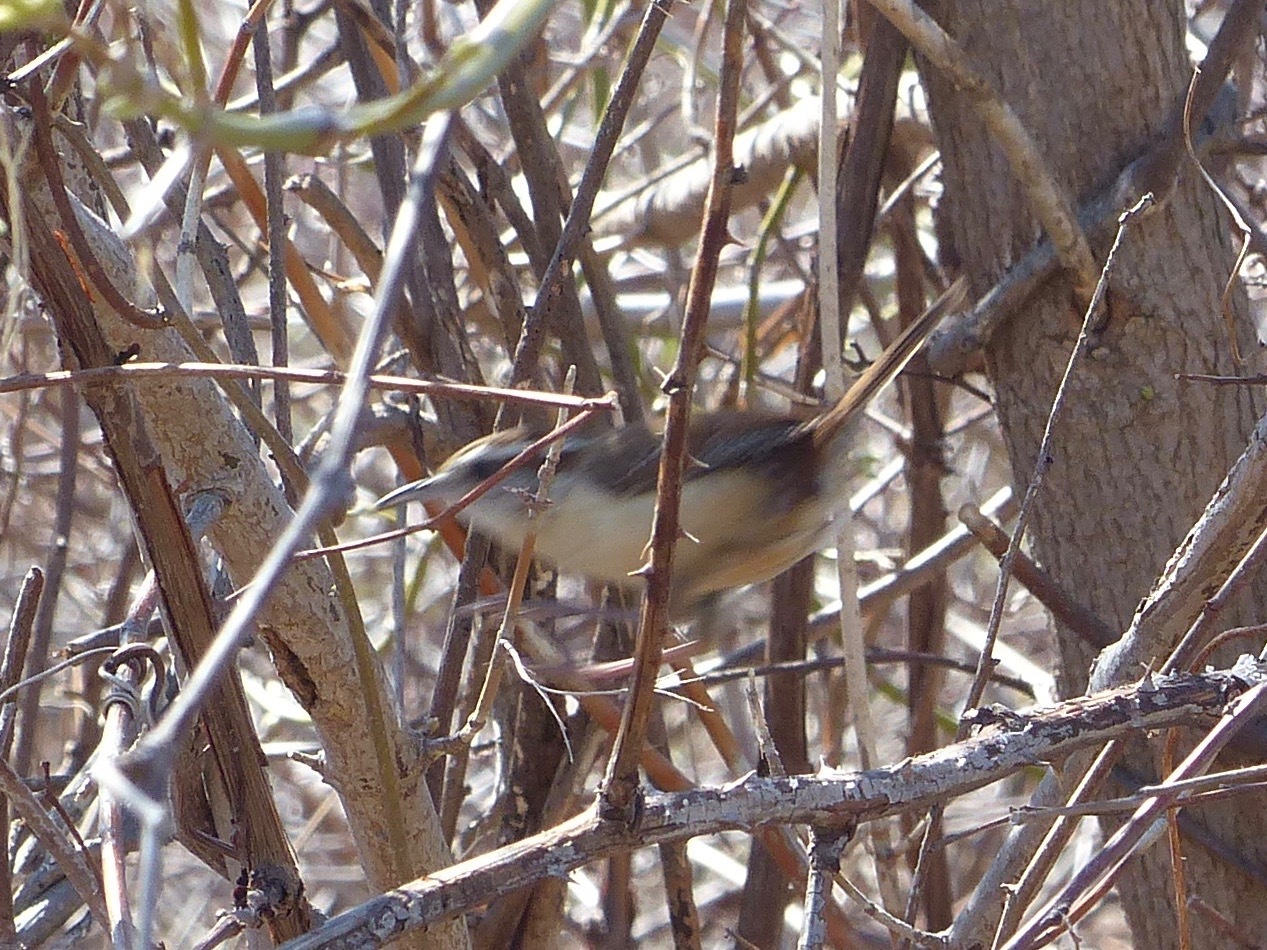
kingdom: Animalia
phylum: Chordata
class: Aves
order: Passeriformes
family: Troglodytidae
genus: Thryothorus
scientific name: Thryothorus ludovicianus
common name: Carolina wren
